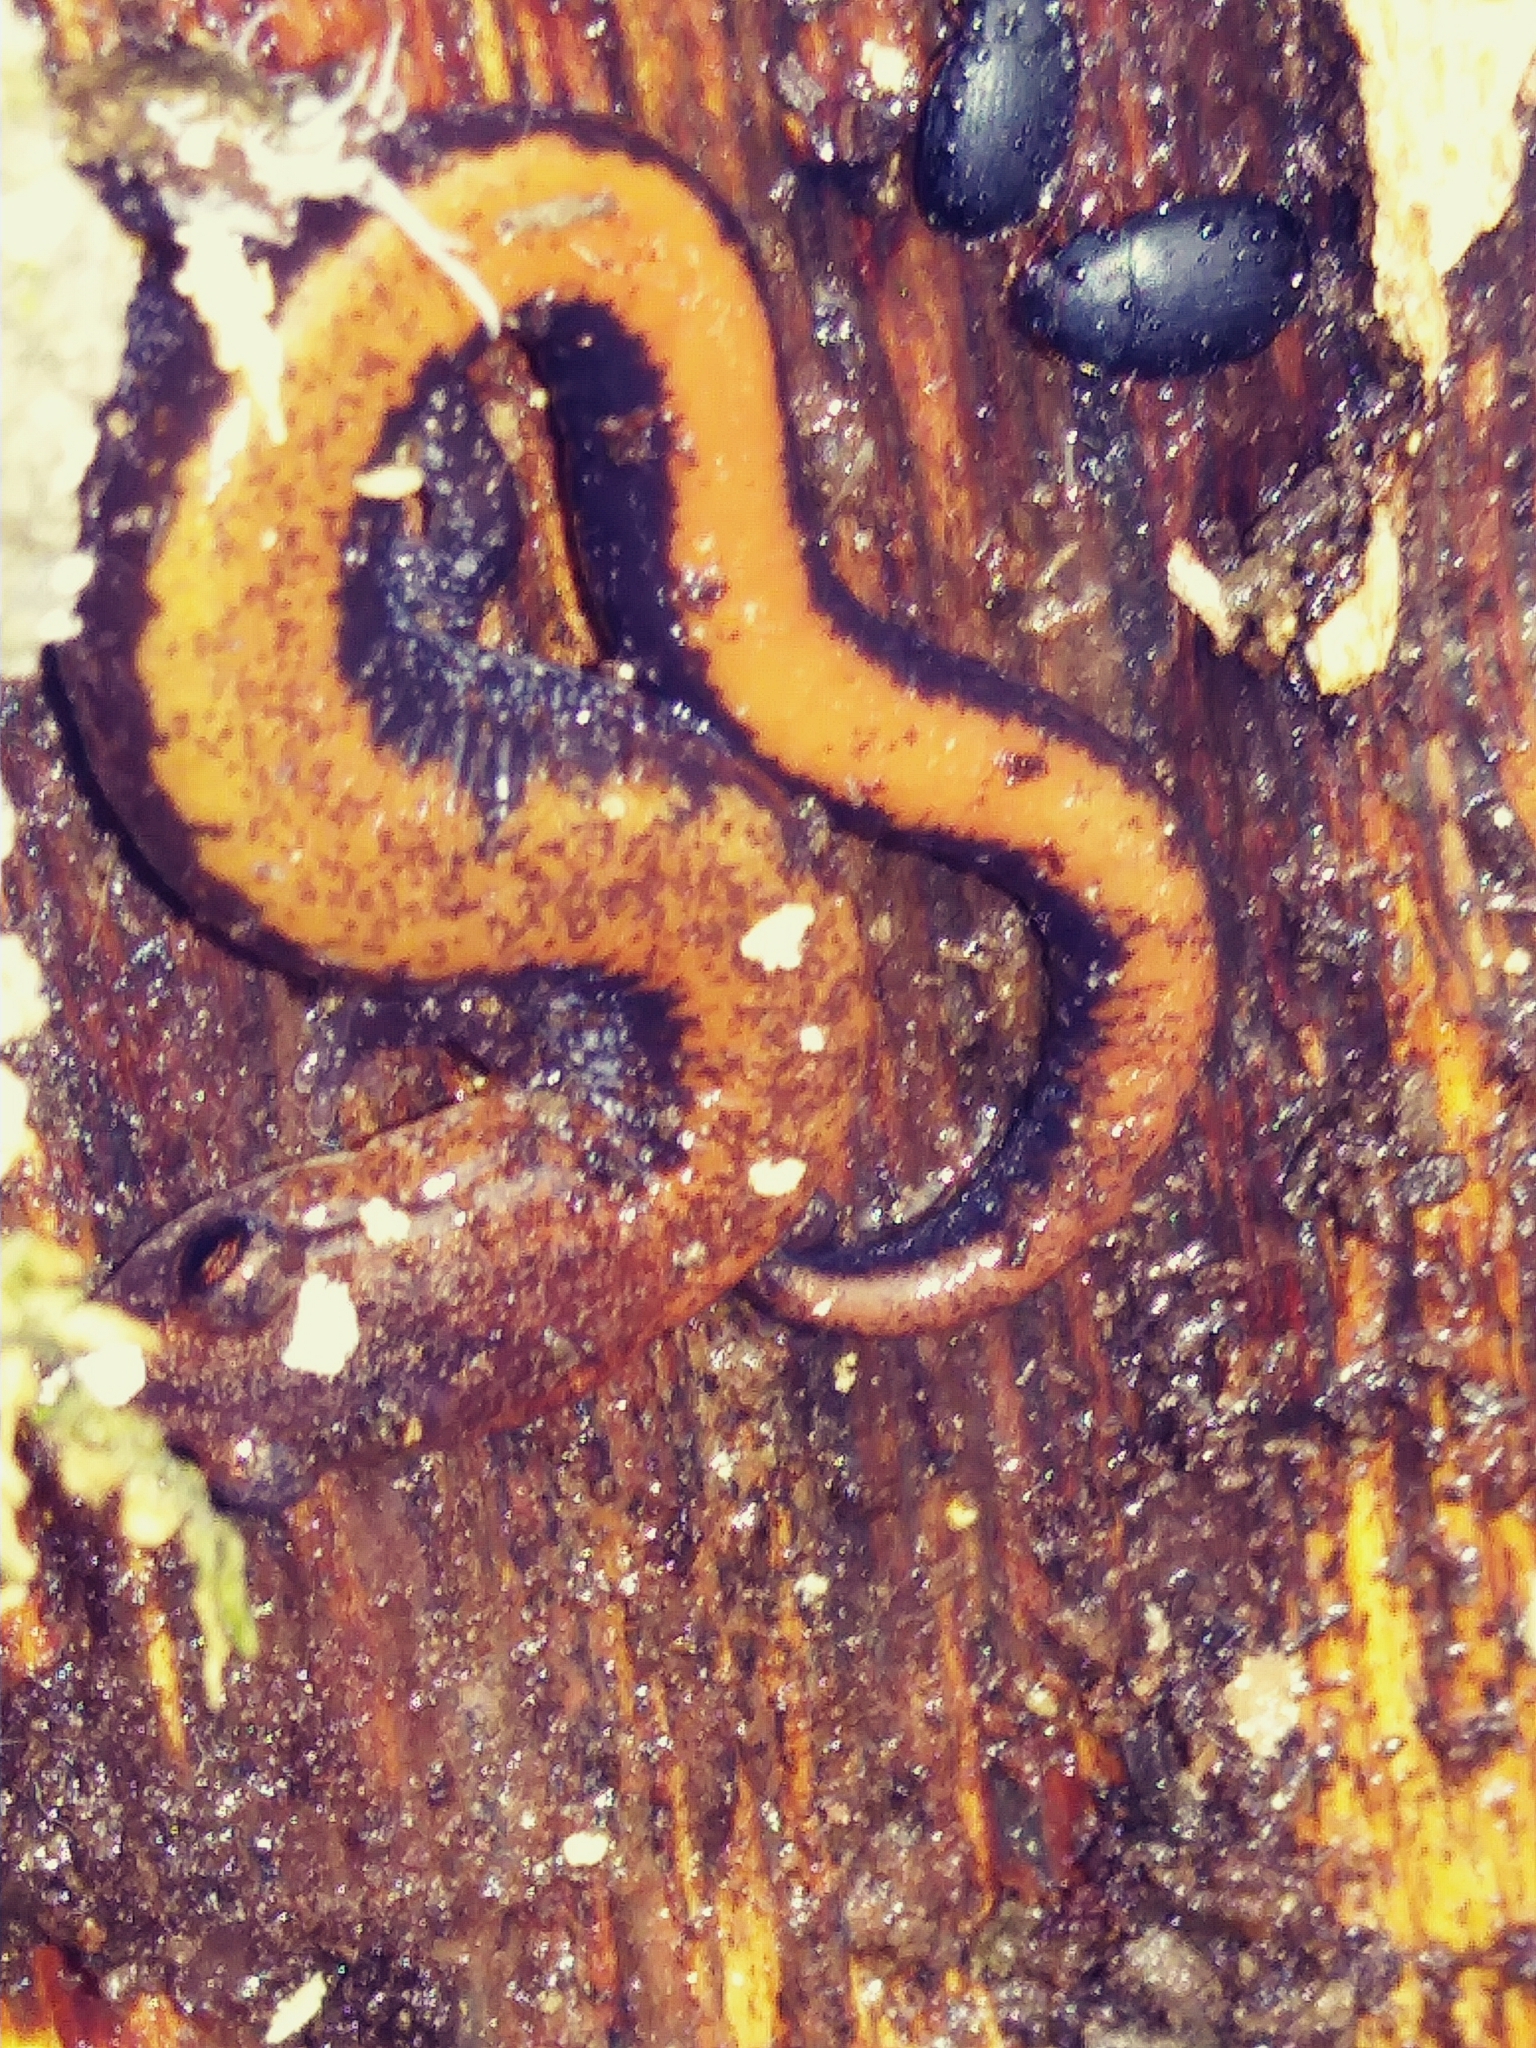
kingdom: Animalia
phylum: Chordata
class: Amphibia
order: Caudata
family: Plethodontidae
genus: Plethodon
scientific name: Plethodon cinereus
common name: Redback salamander
